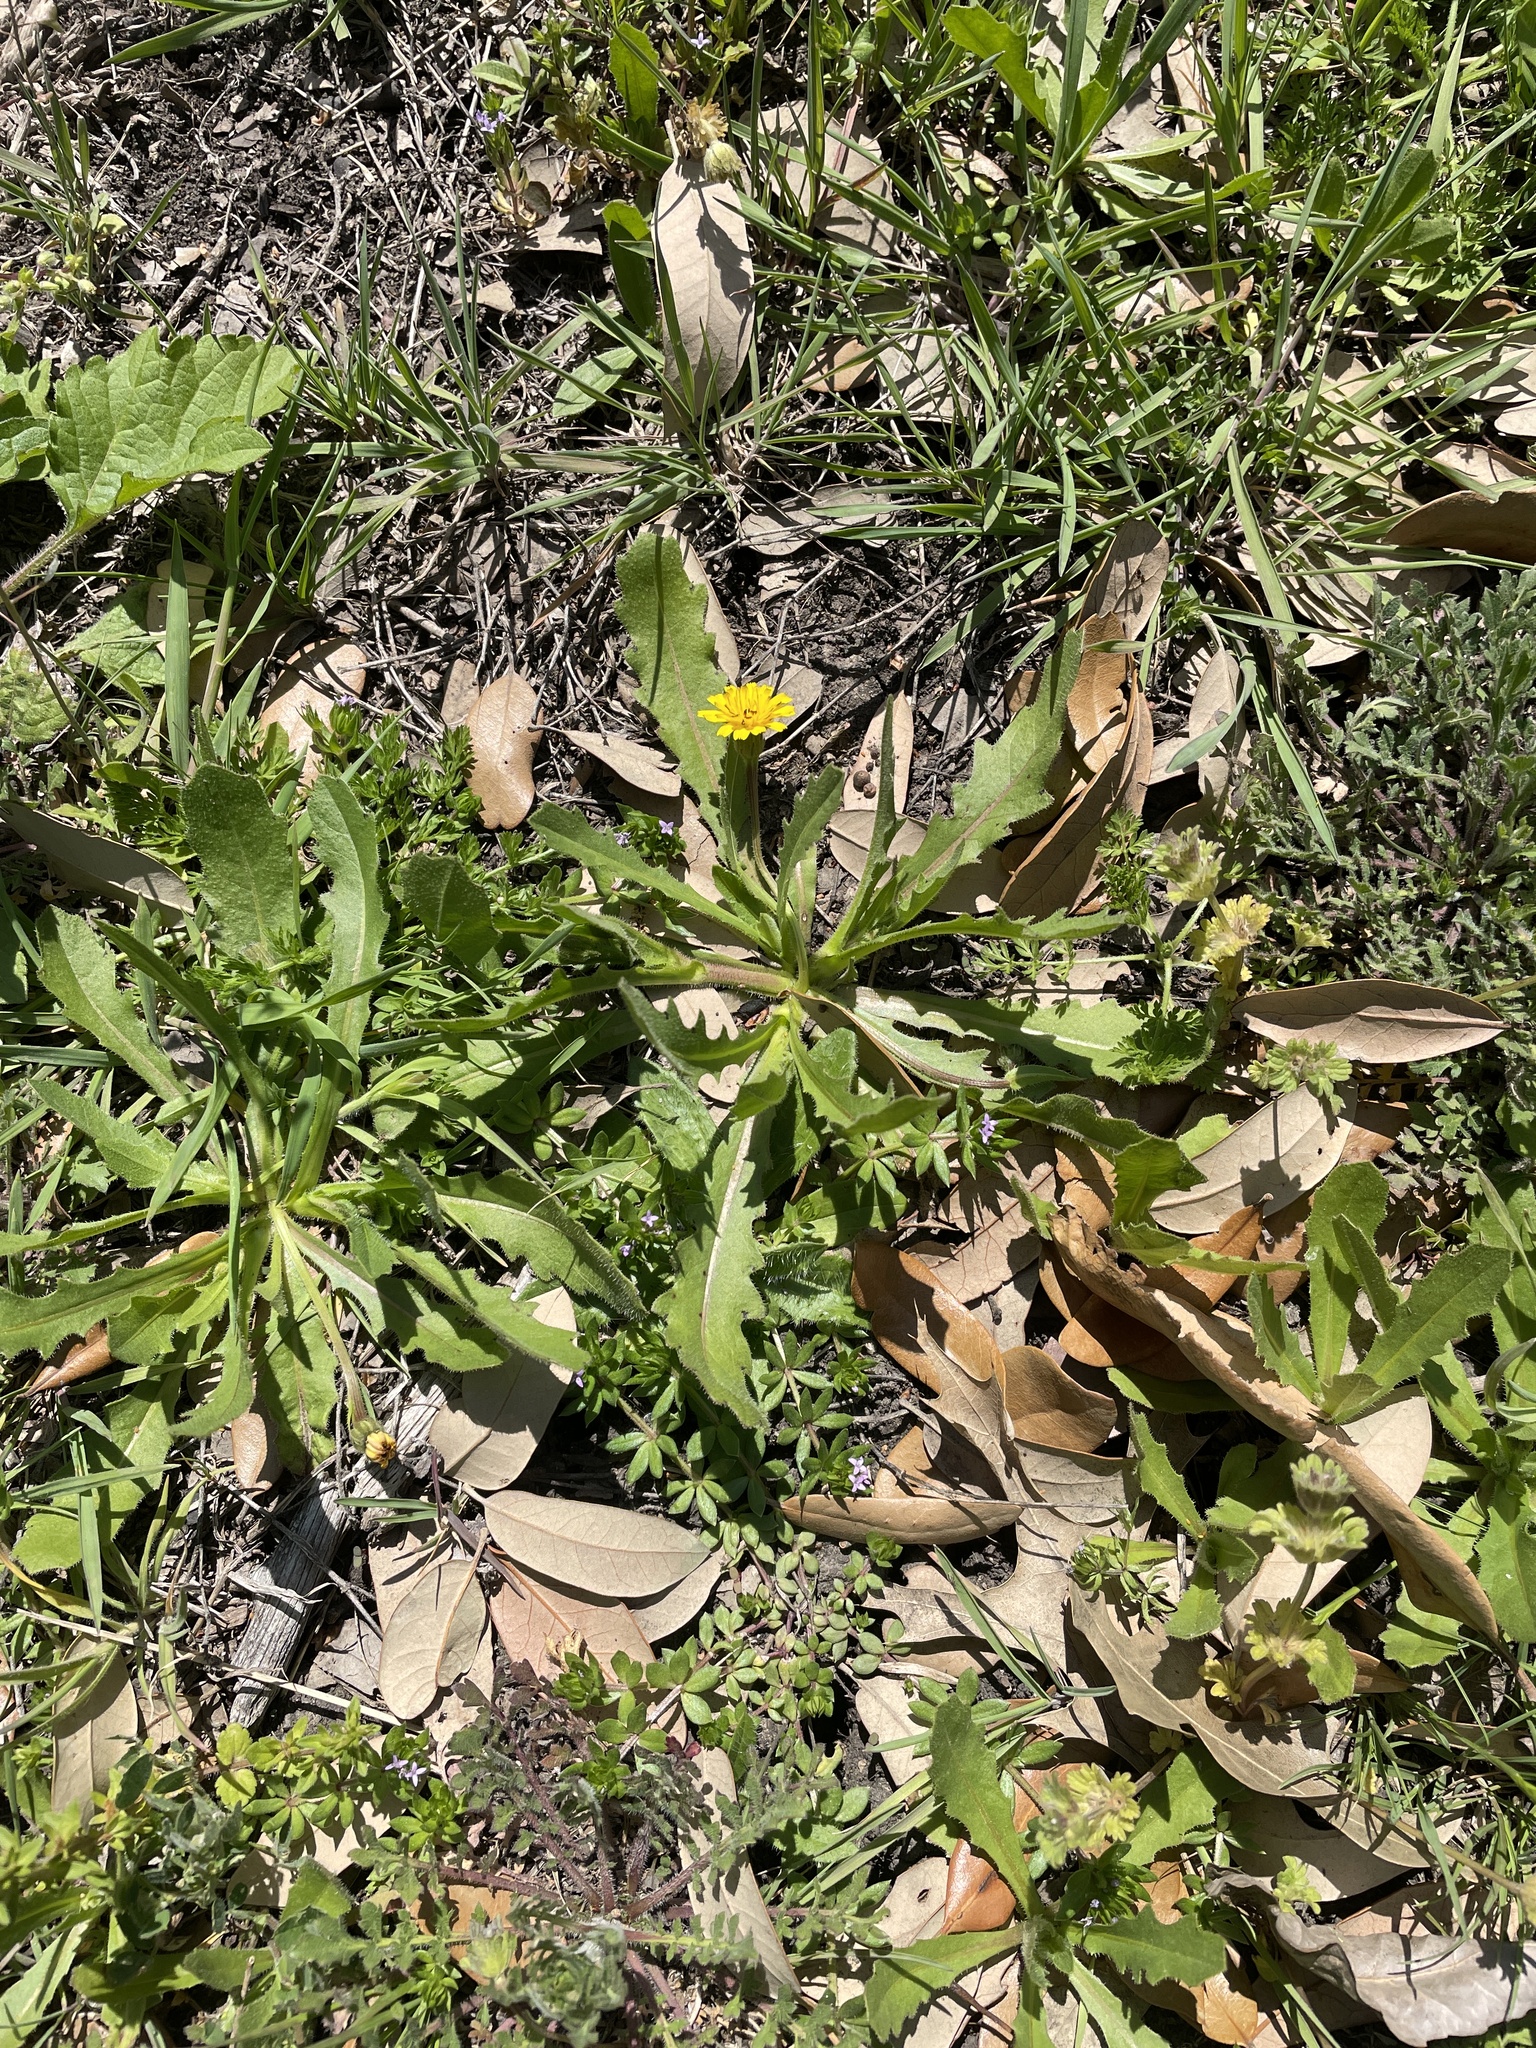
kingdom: Plantae
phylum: Tracheophyta
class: Magnoliopsida
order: Asterales
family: Asteraceae
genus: Hedypnois
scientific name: Hedypnois rhagadioloides
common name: Cretan weed
